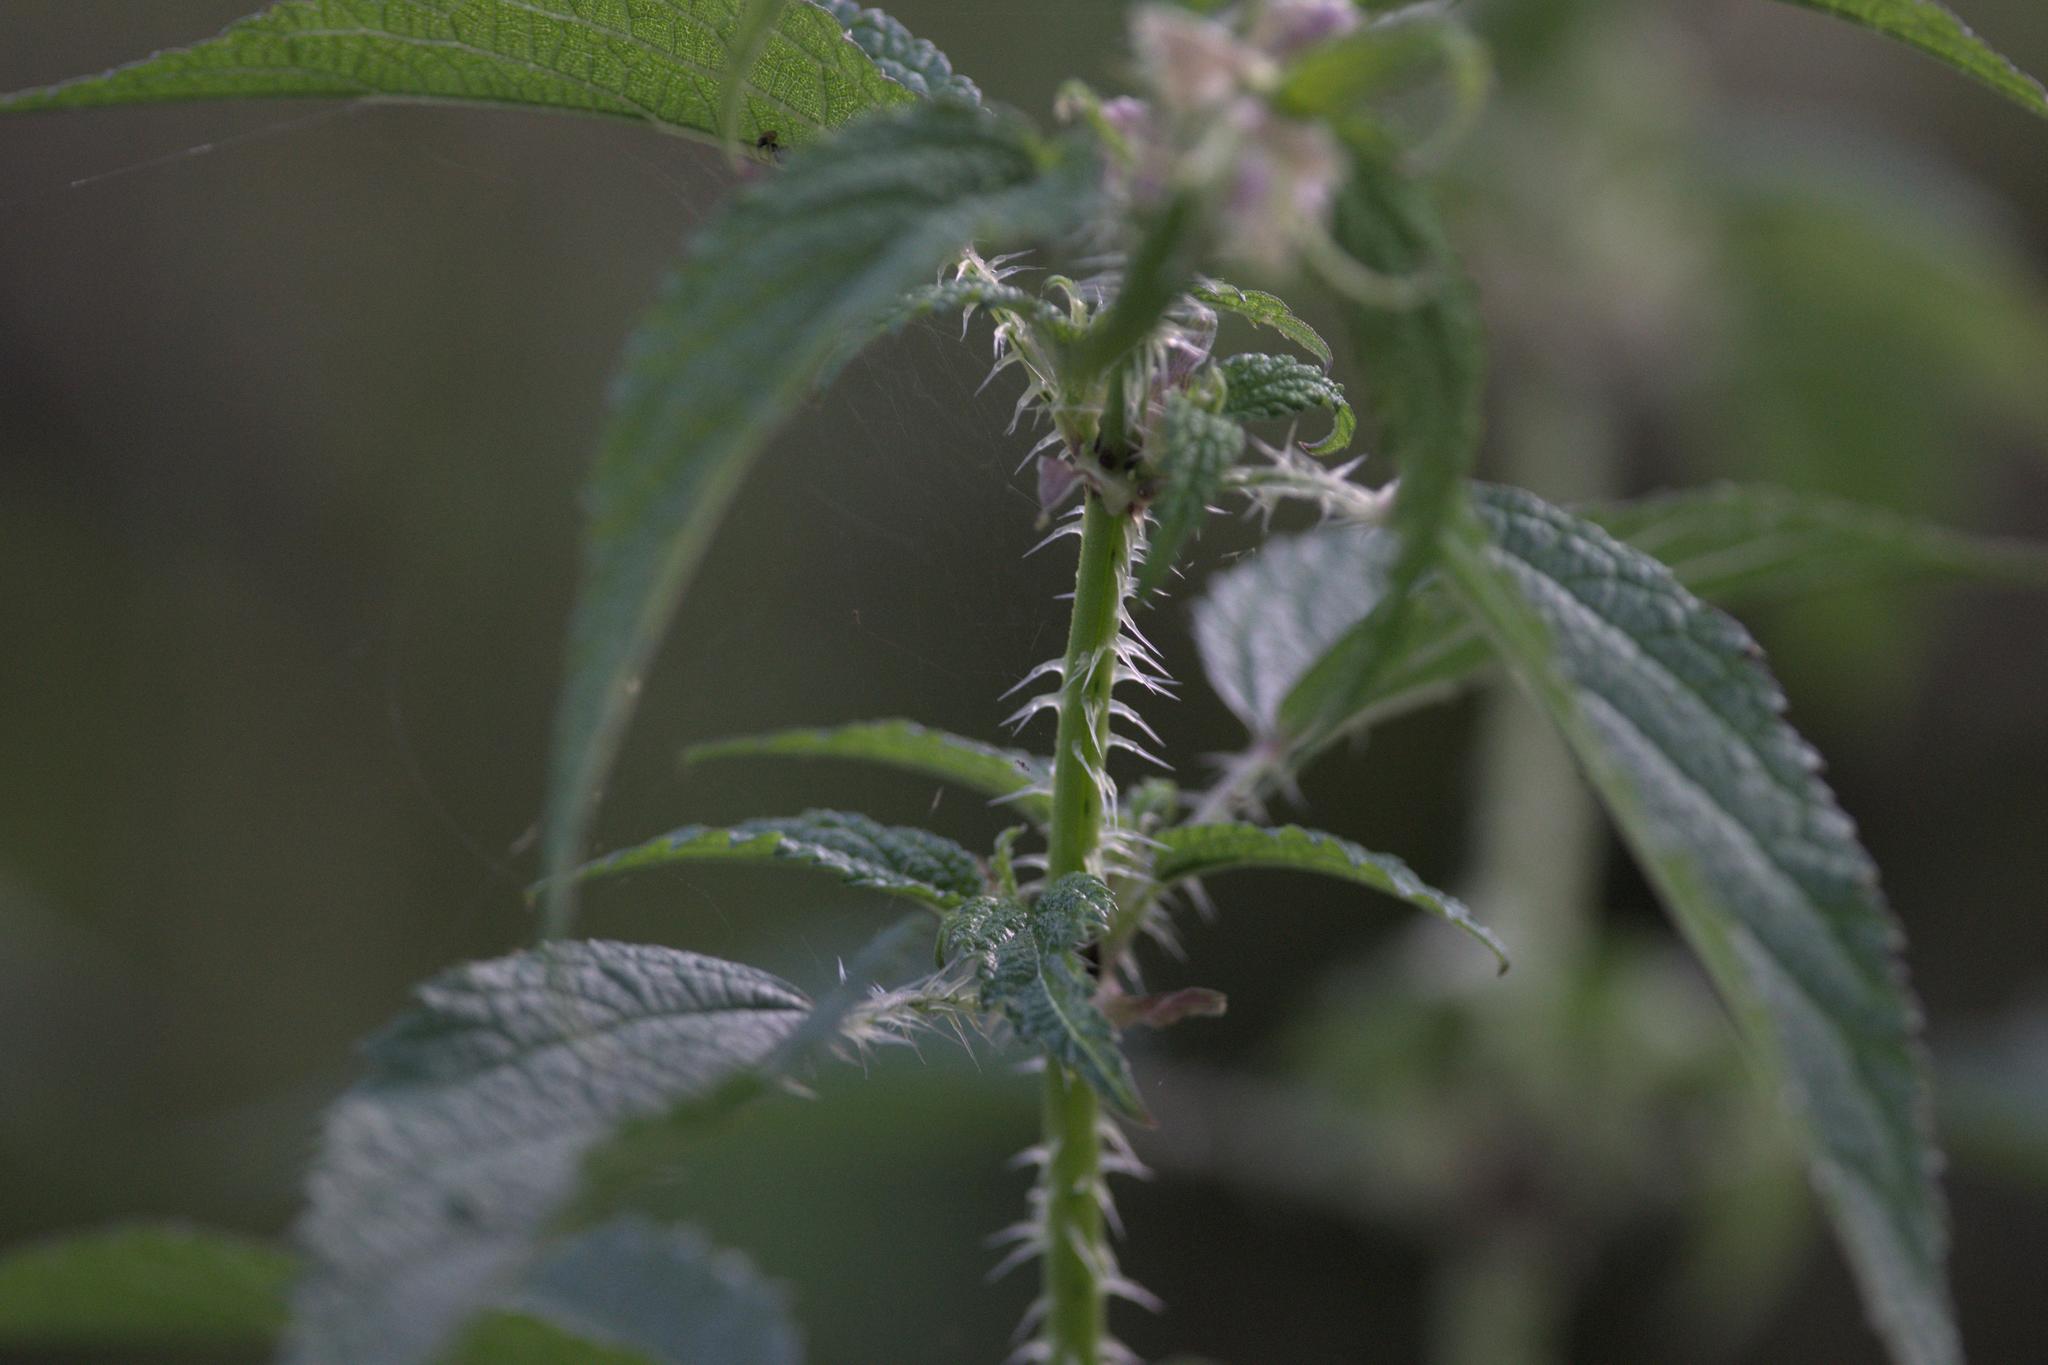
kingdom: Plantae
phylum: Tracheophyta
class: Magnoliopsida
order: Rosales
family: Urticaceae
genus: Urtica
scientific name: Urtica dioica
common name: Common nettle
